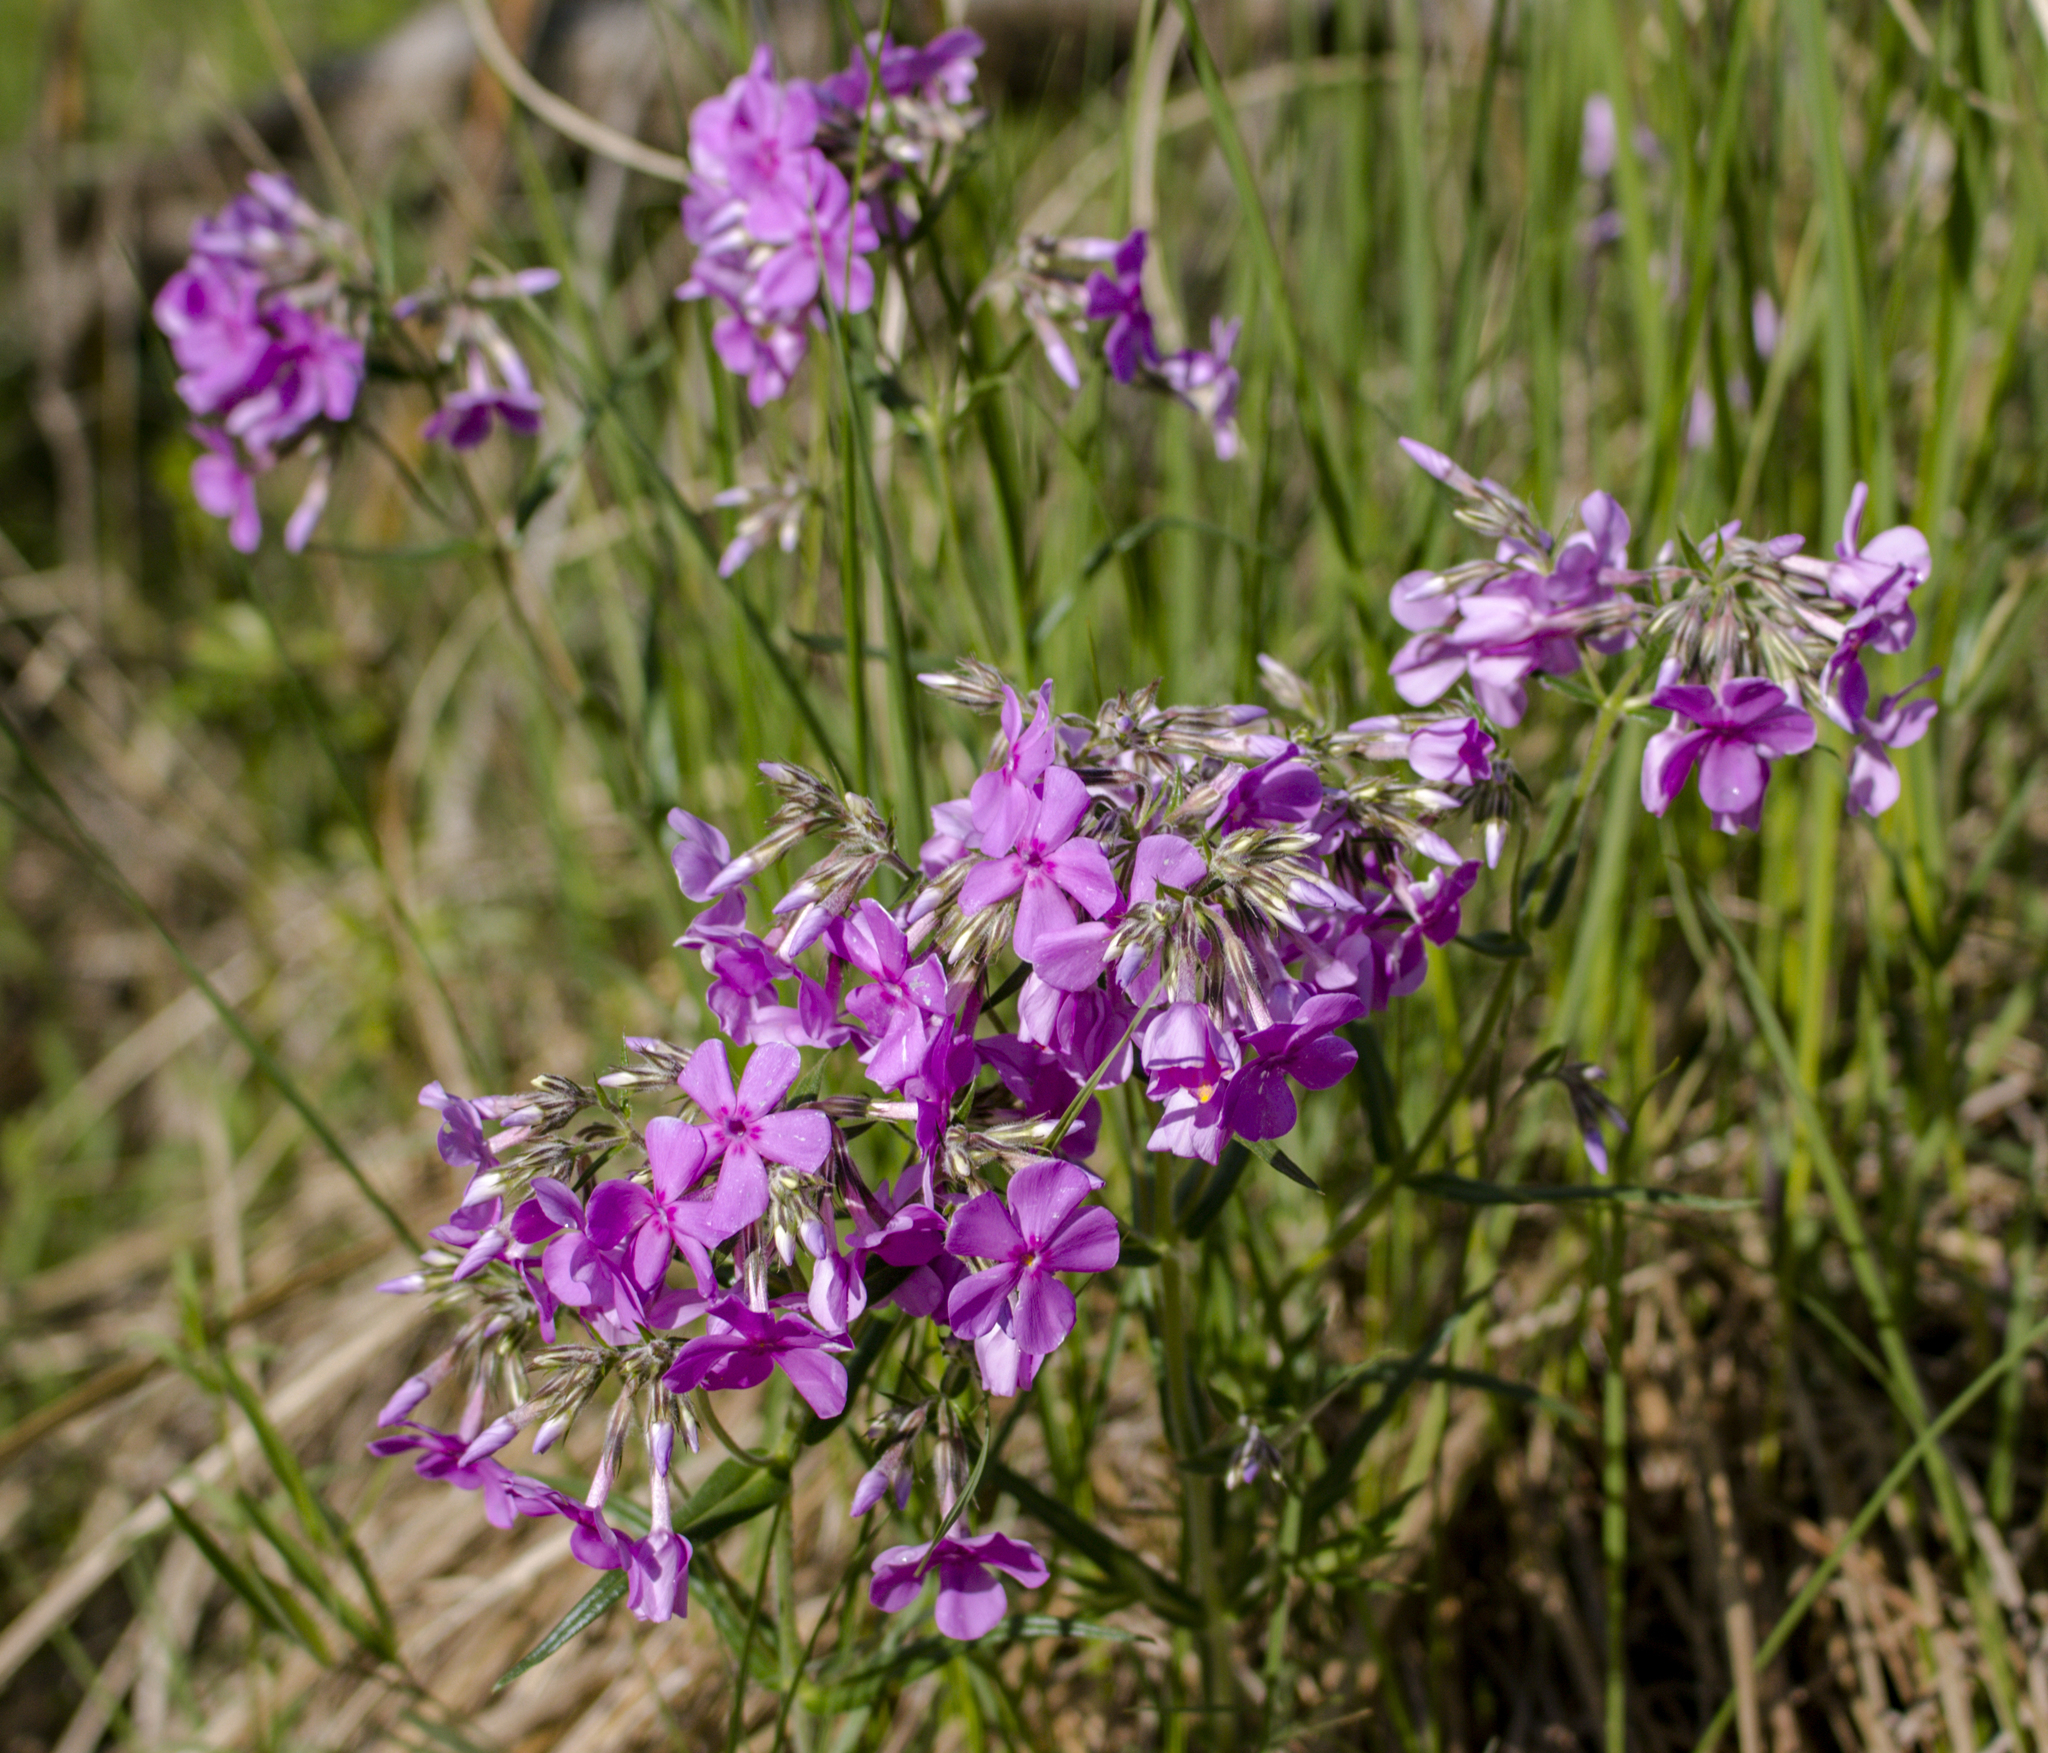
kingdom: Plantae
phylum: Tracheophyta
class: Magnoliopsida
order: Ericales
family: Polemoniaceae
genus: Phlox
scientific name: Phlox pilosa
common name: Prairie phlox
